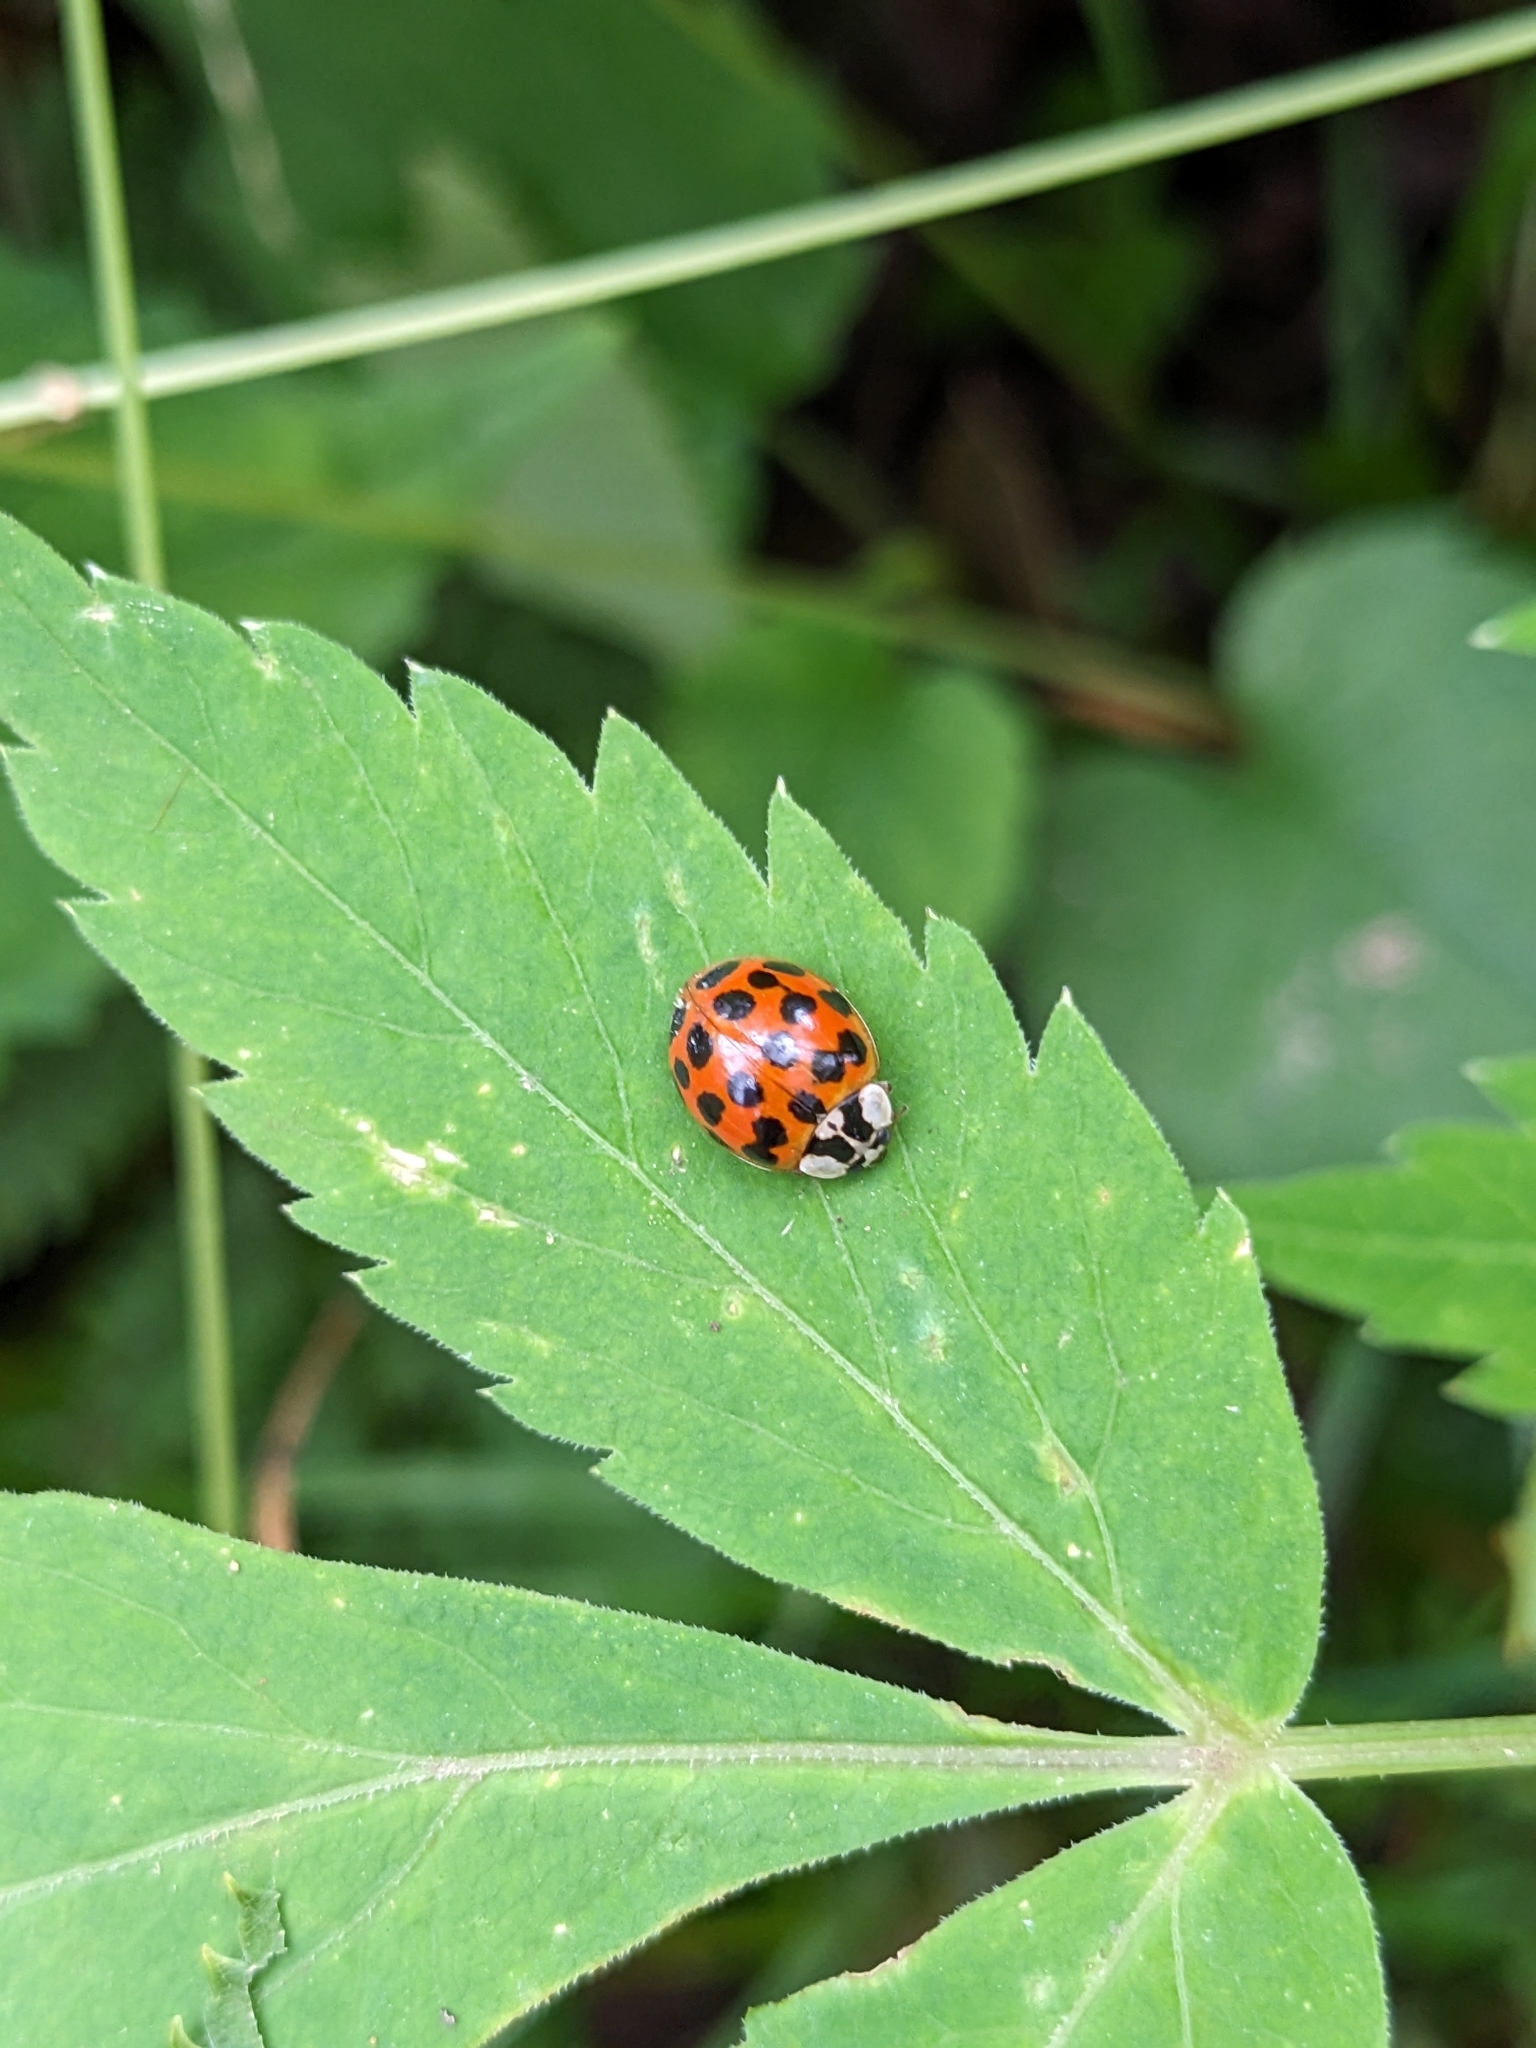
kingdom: Animalia
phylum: Arthropoda
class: Insecta
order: Coleoptera
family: Coccinellidae
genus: Harmonia
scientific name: Harmonia axyridis
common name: Harlequin ladybird
